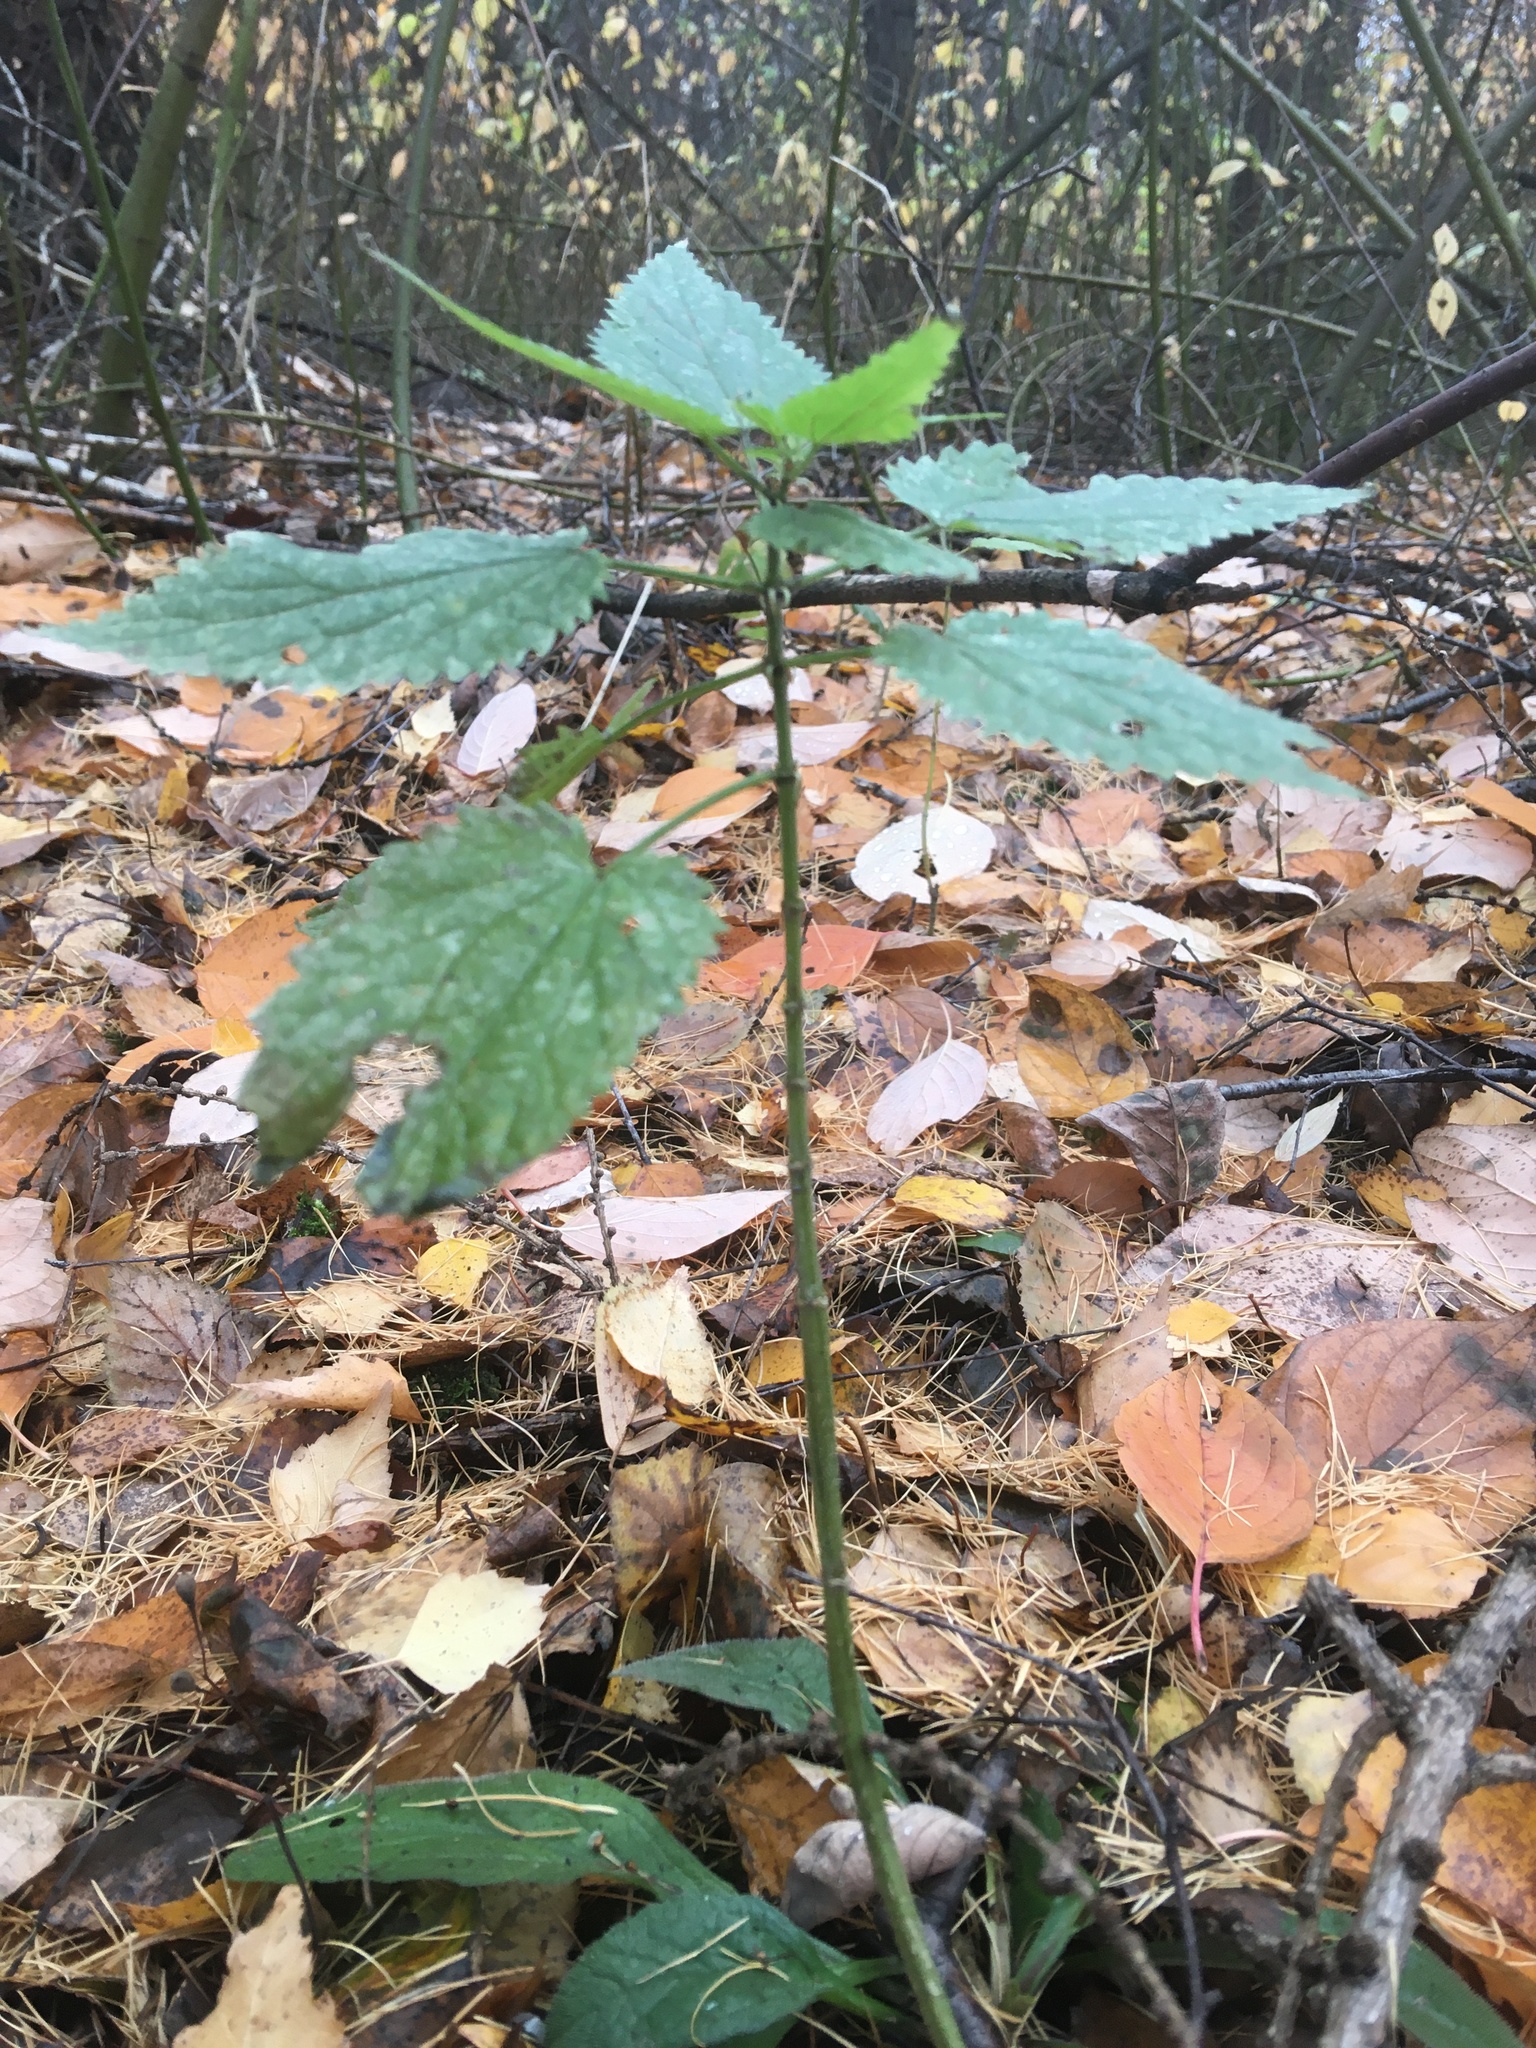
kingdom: Plantae
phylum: Tracheophyta
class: Magnoliopsida
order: Rosales
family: Urticaceae
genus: Urtica
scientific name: Urtica dioica
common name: Common nettle
